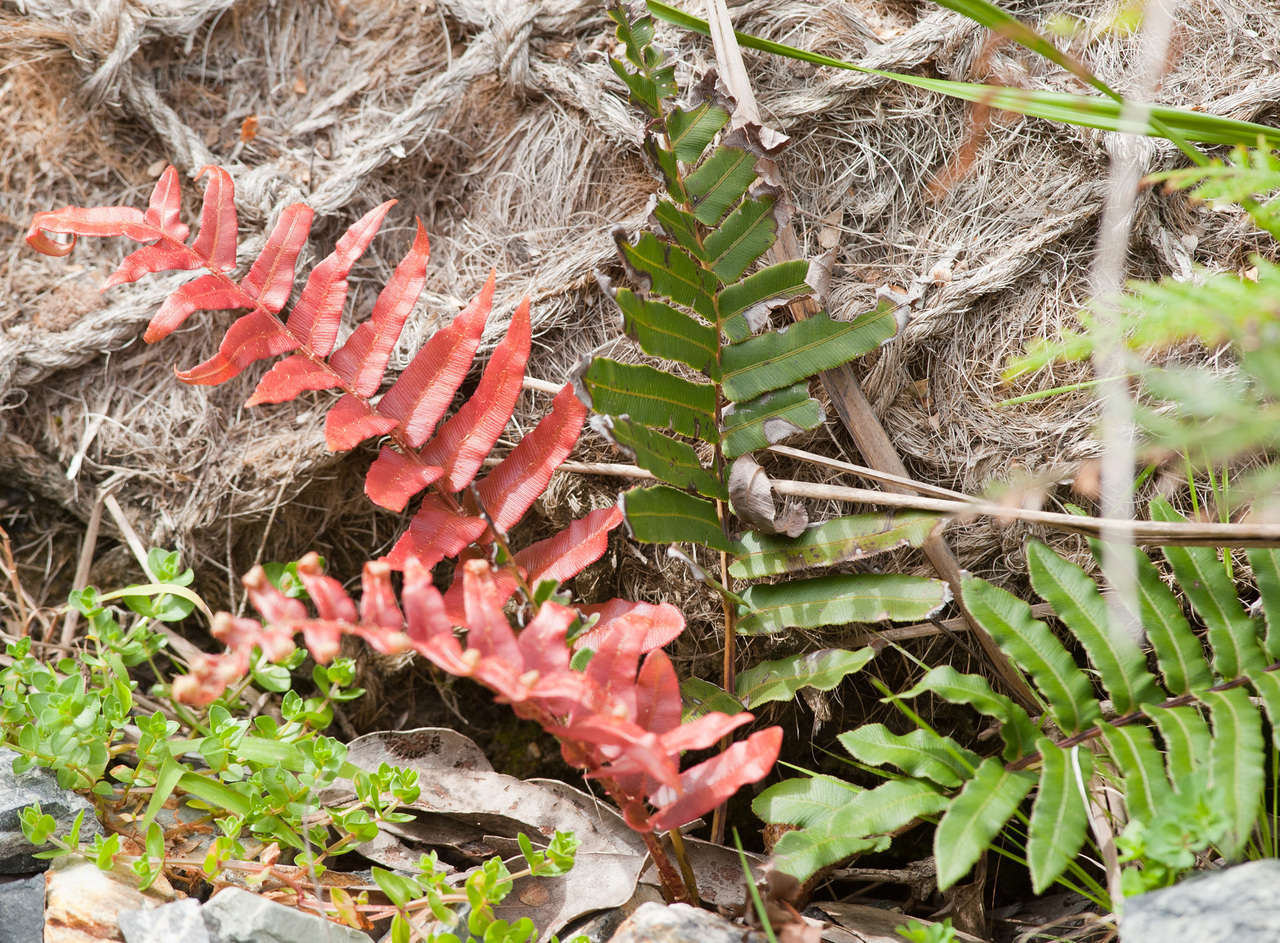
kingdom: Plantae
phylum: Tracheophyta
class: Polypodiopsida
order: Polypodiales
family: Blechnaceae
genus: Parablechnum
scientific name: Parablechnum wattsii
